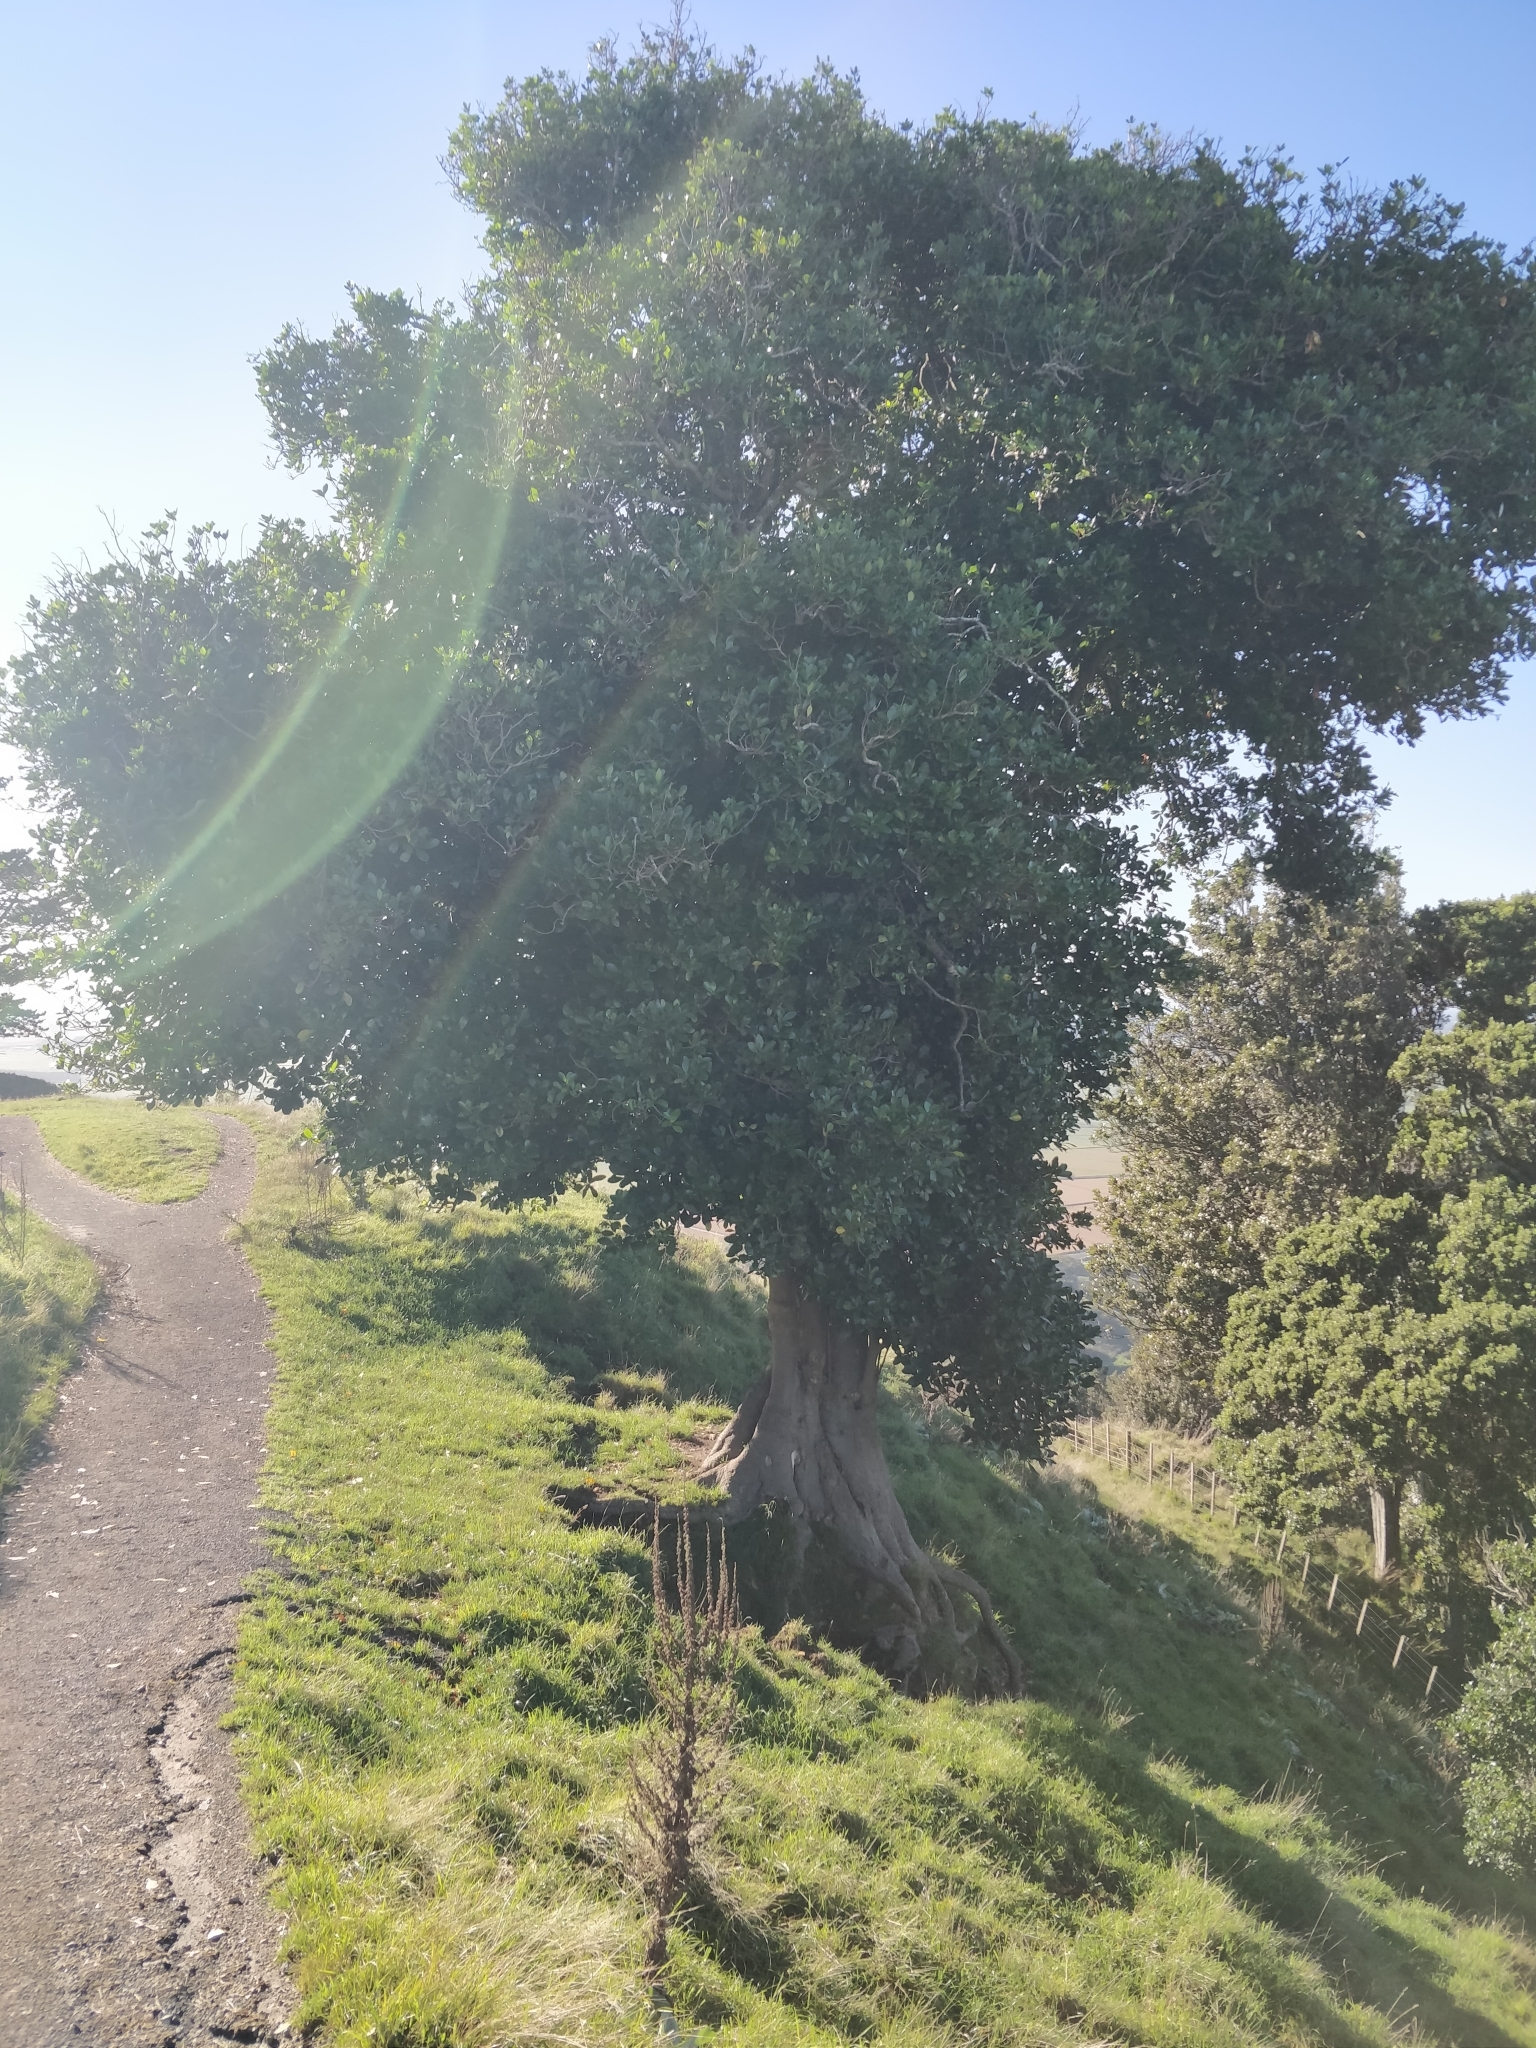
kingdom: Plantae
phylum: Tracheophyta
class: Magnoliopsida
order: Cucurbitales
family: Corynocarpaceae
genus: Corynocarpus
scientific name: Corynocarpus laevigatus
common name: New zealand laurel
